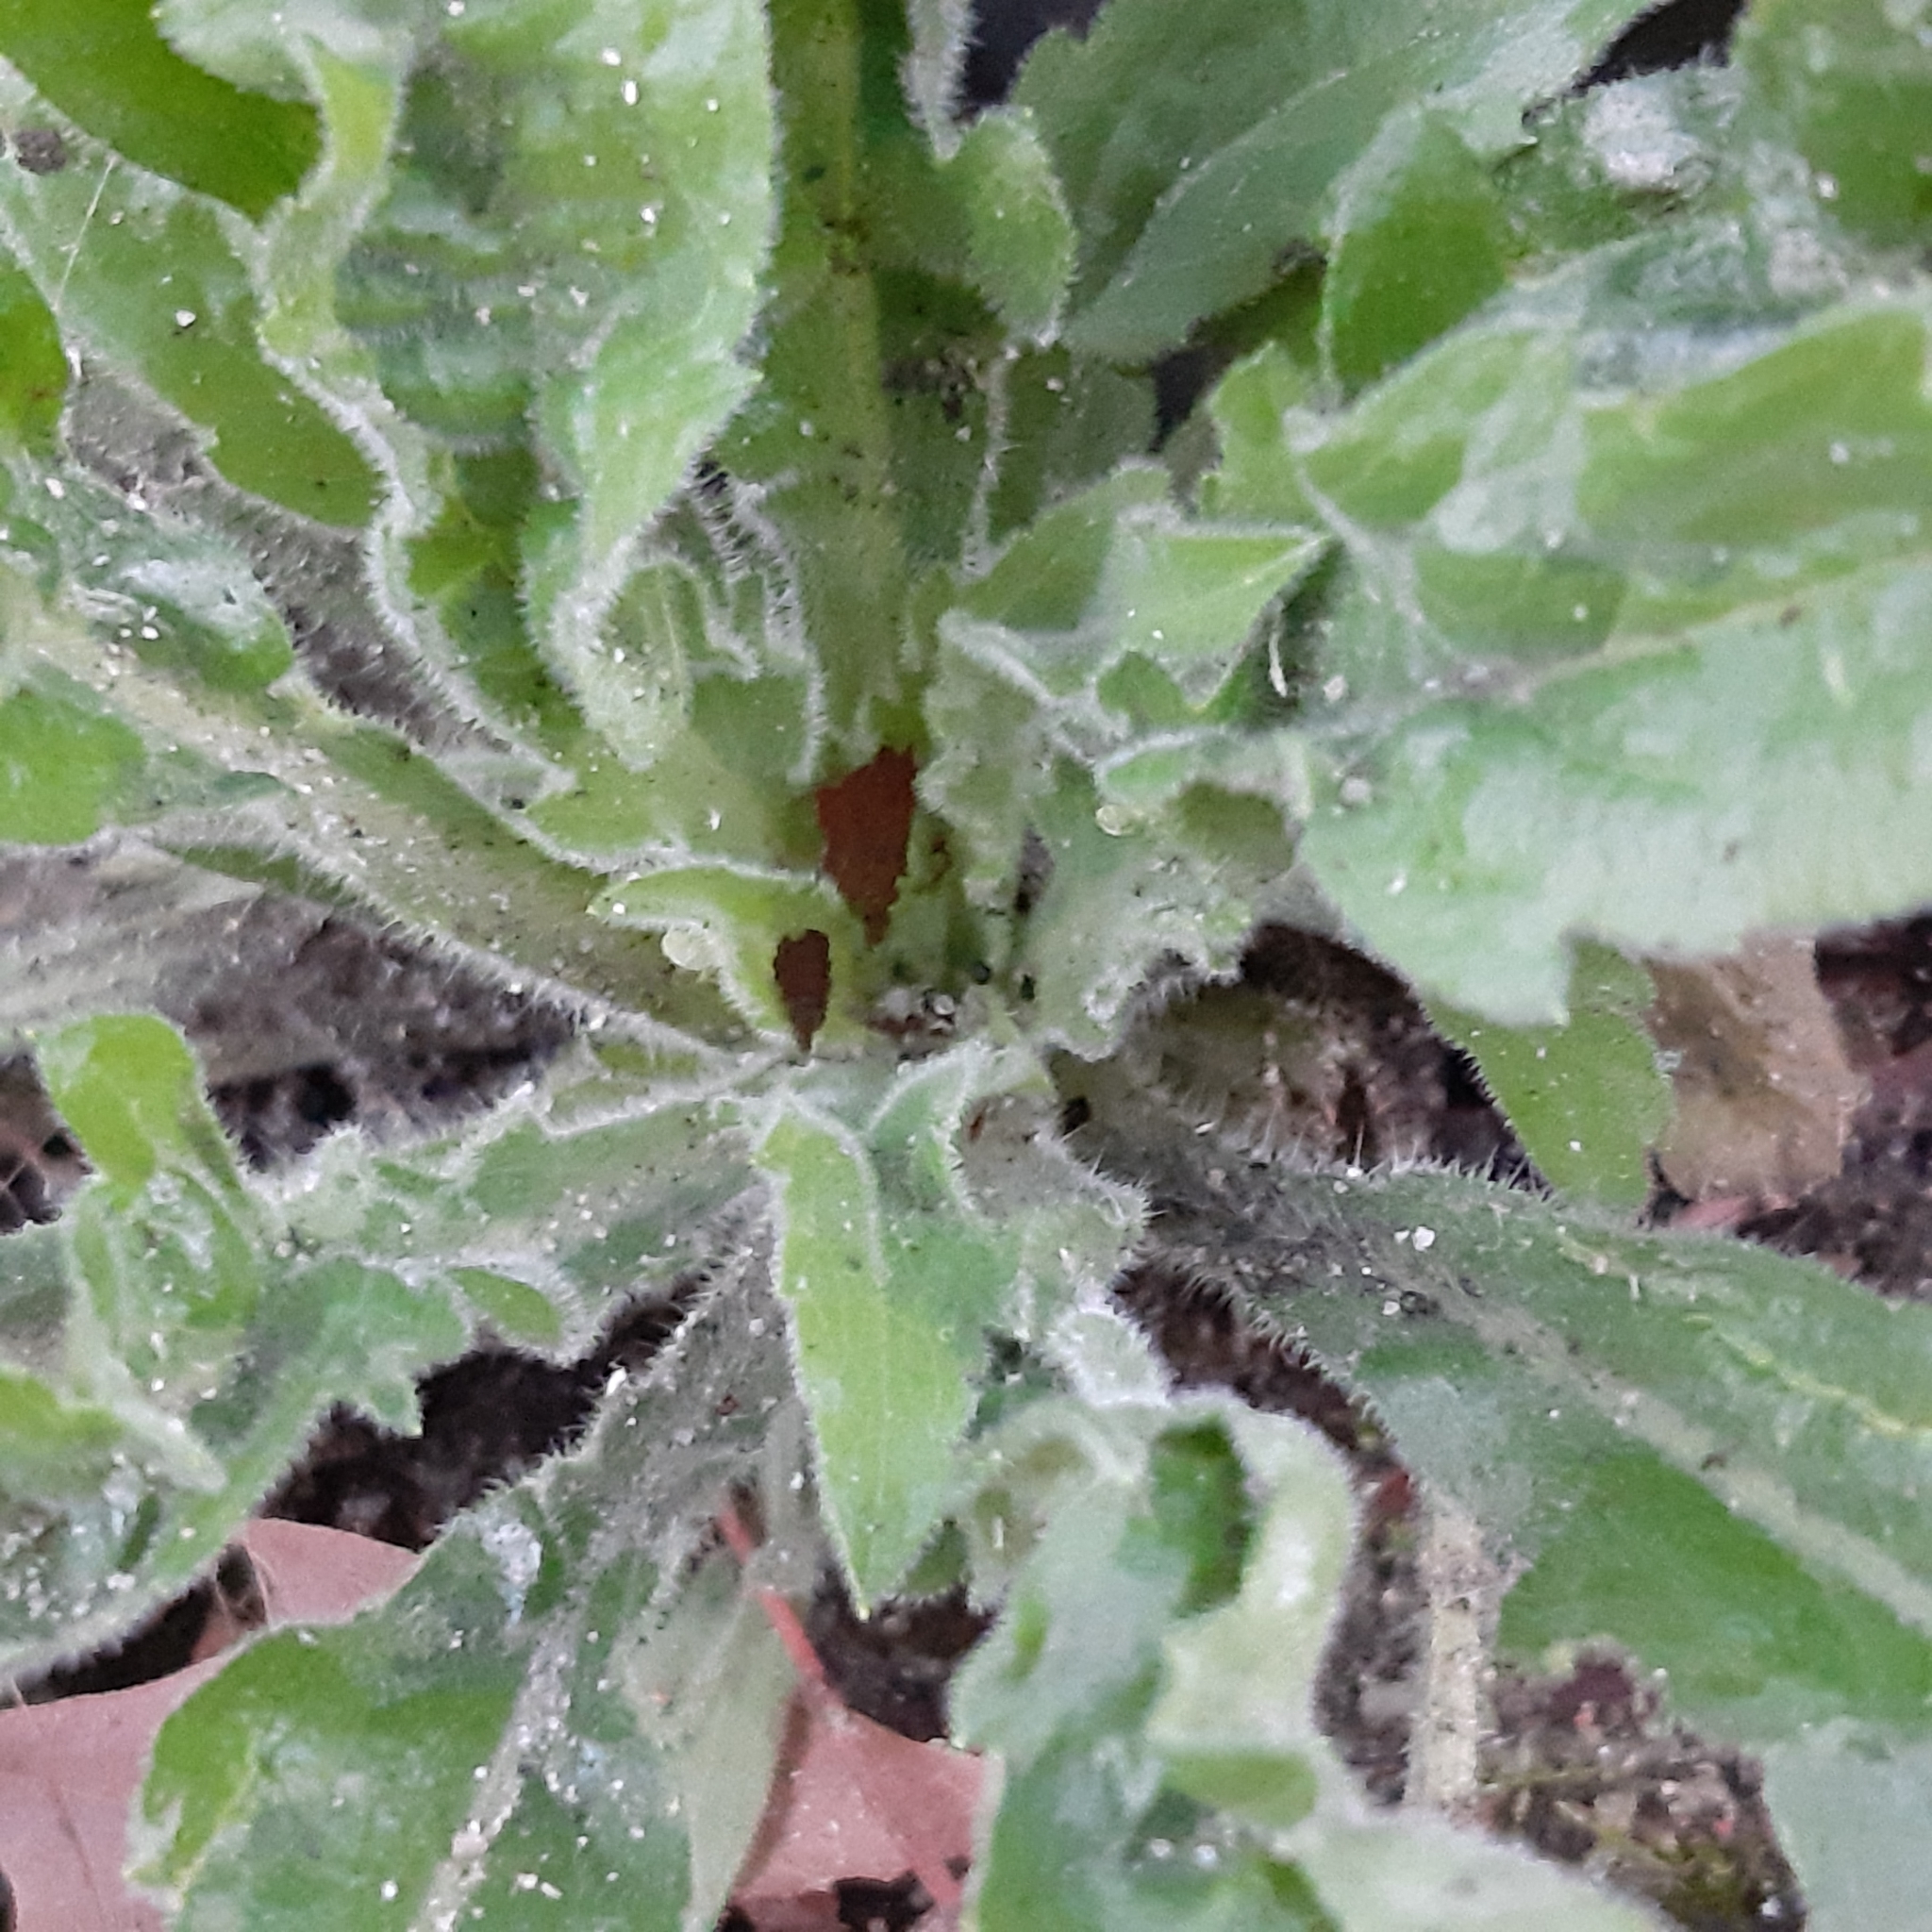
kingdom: Plantae
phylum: Tracheophyta
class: Magnoliopsida
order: Asterales
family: Asteraceae
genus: Erigeron
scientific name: Erigeron sumatrensis
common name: Daisy
